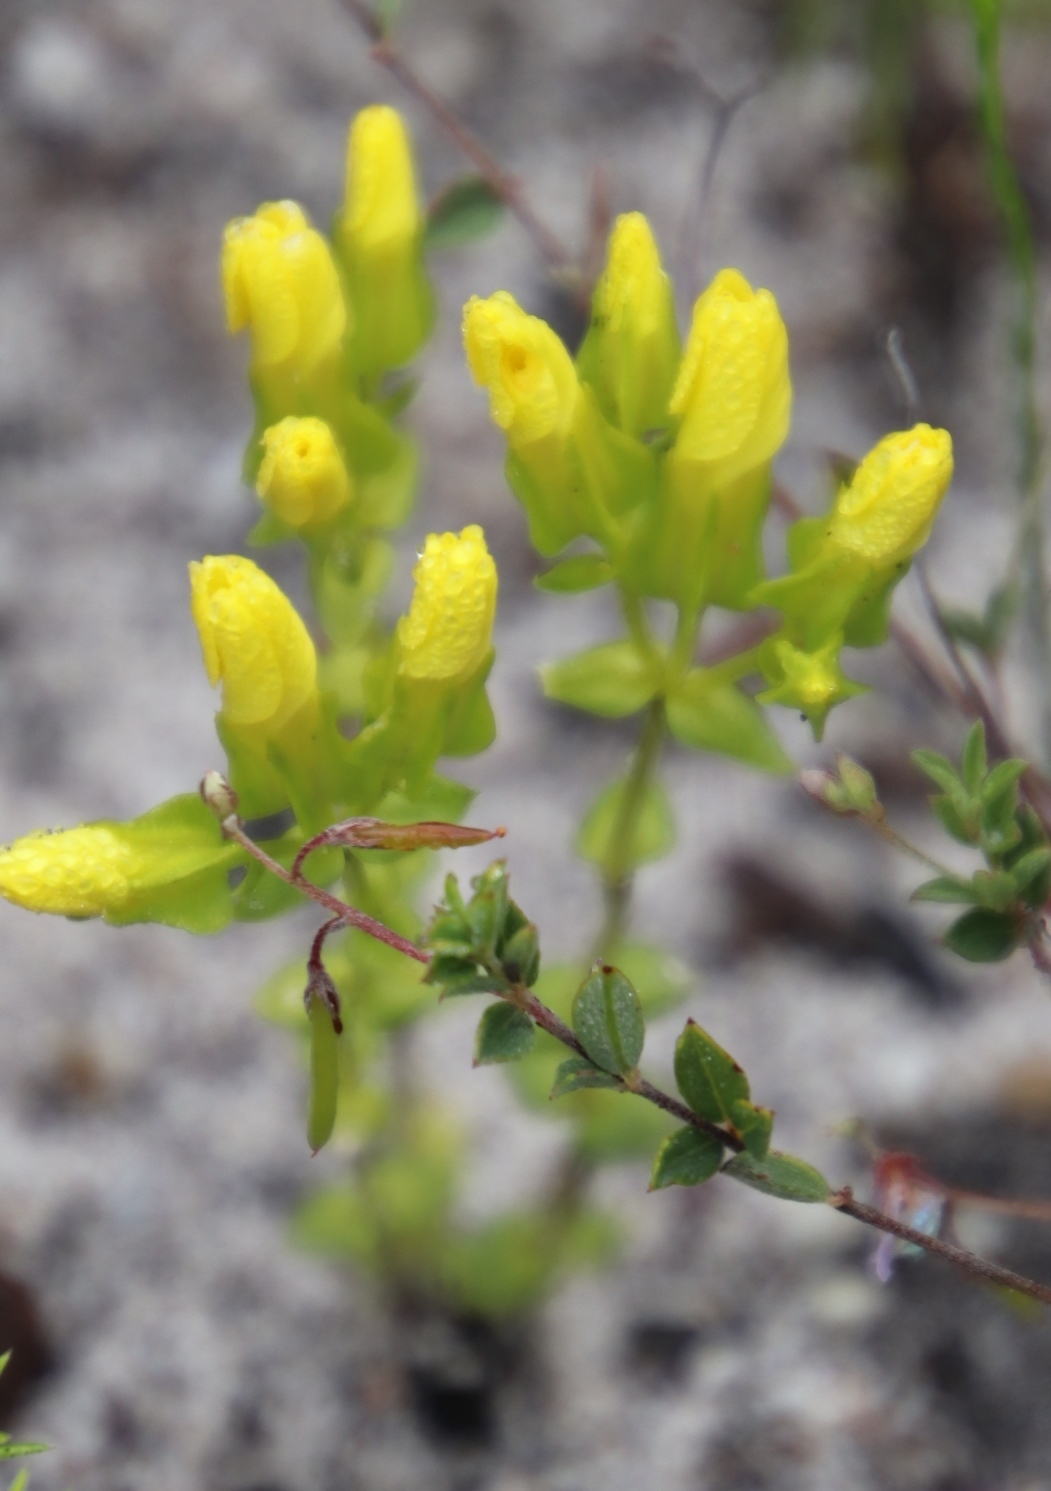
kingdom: Plantae
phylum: Tracheophyta
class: Magnoliopsida
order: Gentianales
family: Gentianaceae
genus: Sebaea
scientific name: Sebaea exacoides
